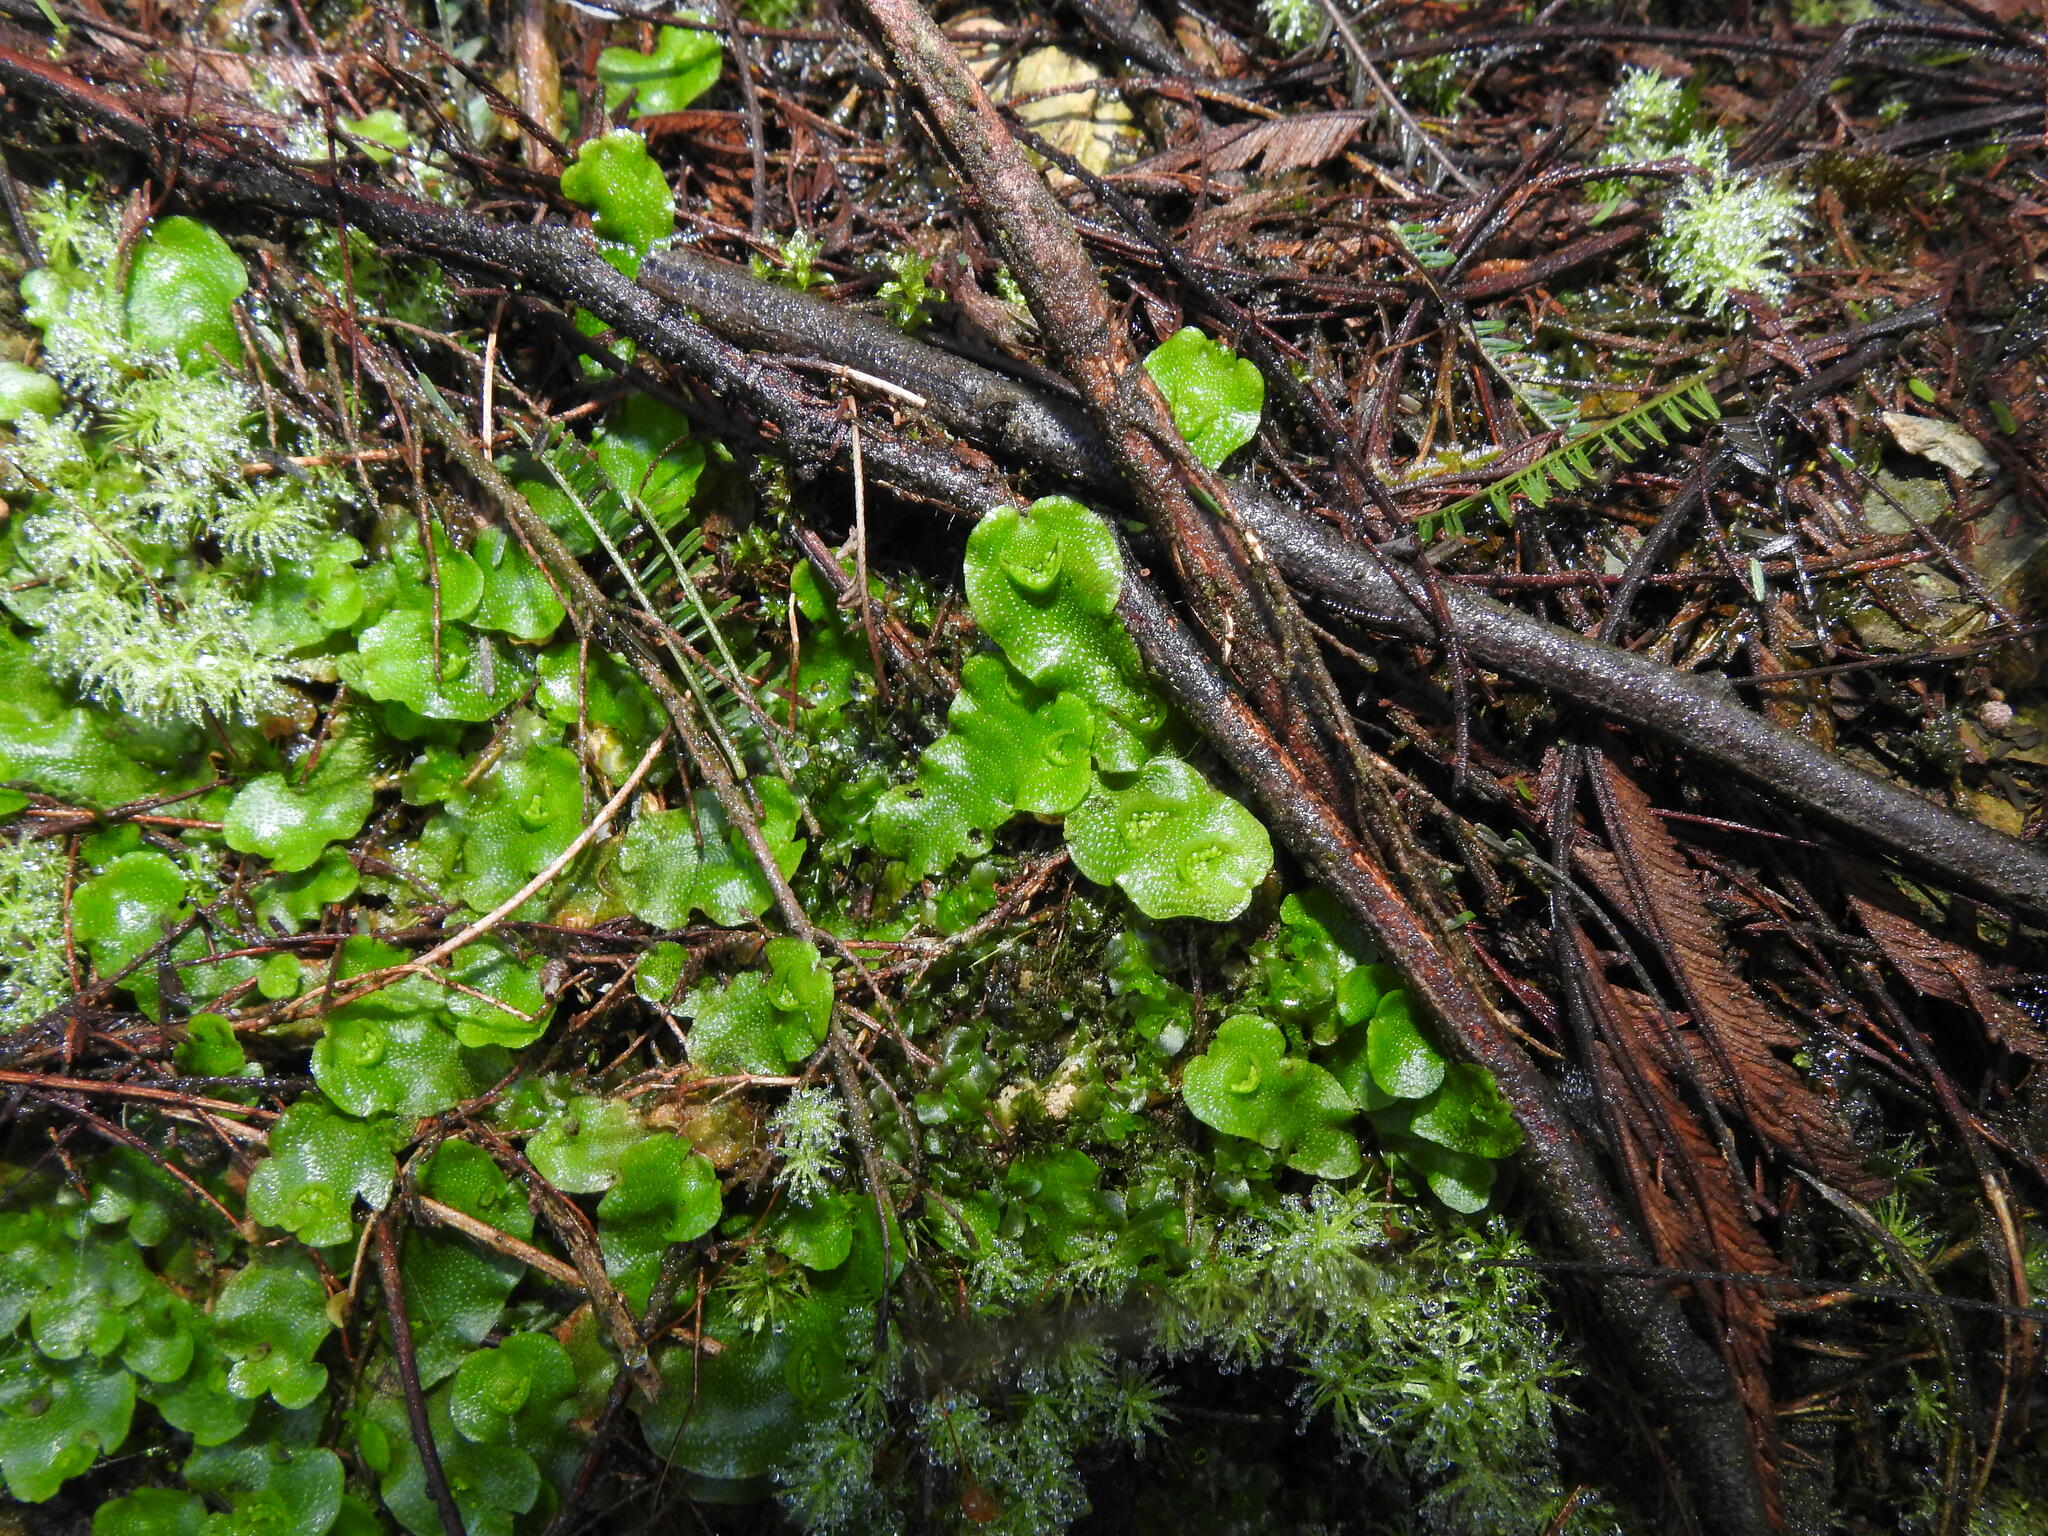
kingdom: Plantae
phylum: Marchantiophyta
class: Marchantiopsida
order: Lunulariales
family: Lunulariaceae
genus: Lunularia
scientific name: Lunularia cruciata
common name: Crescent-cup liverwort
